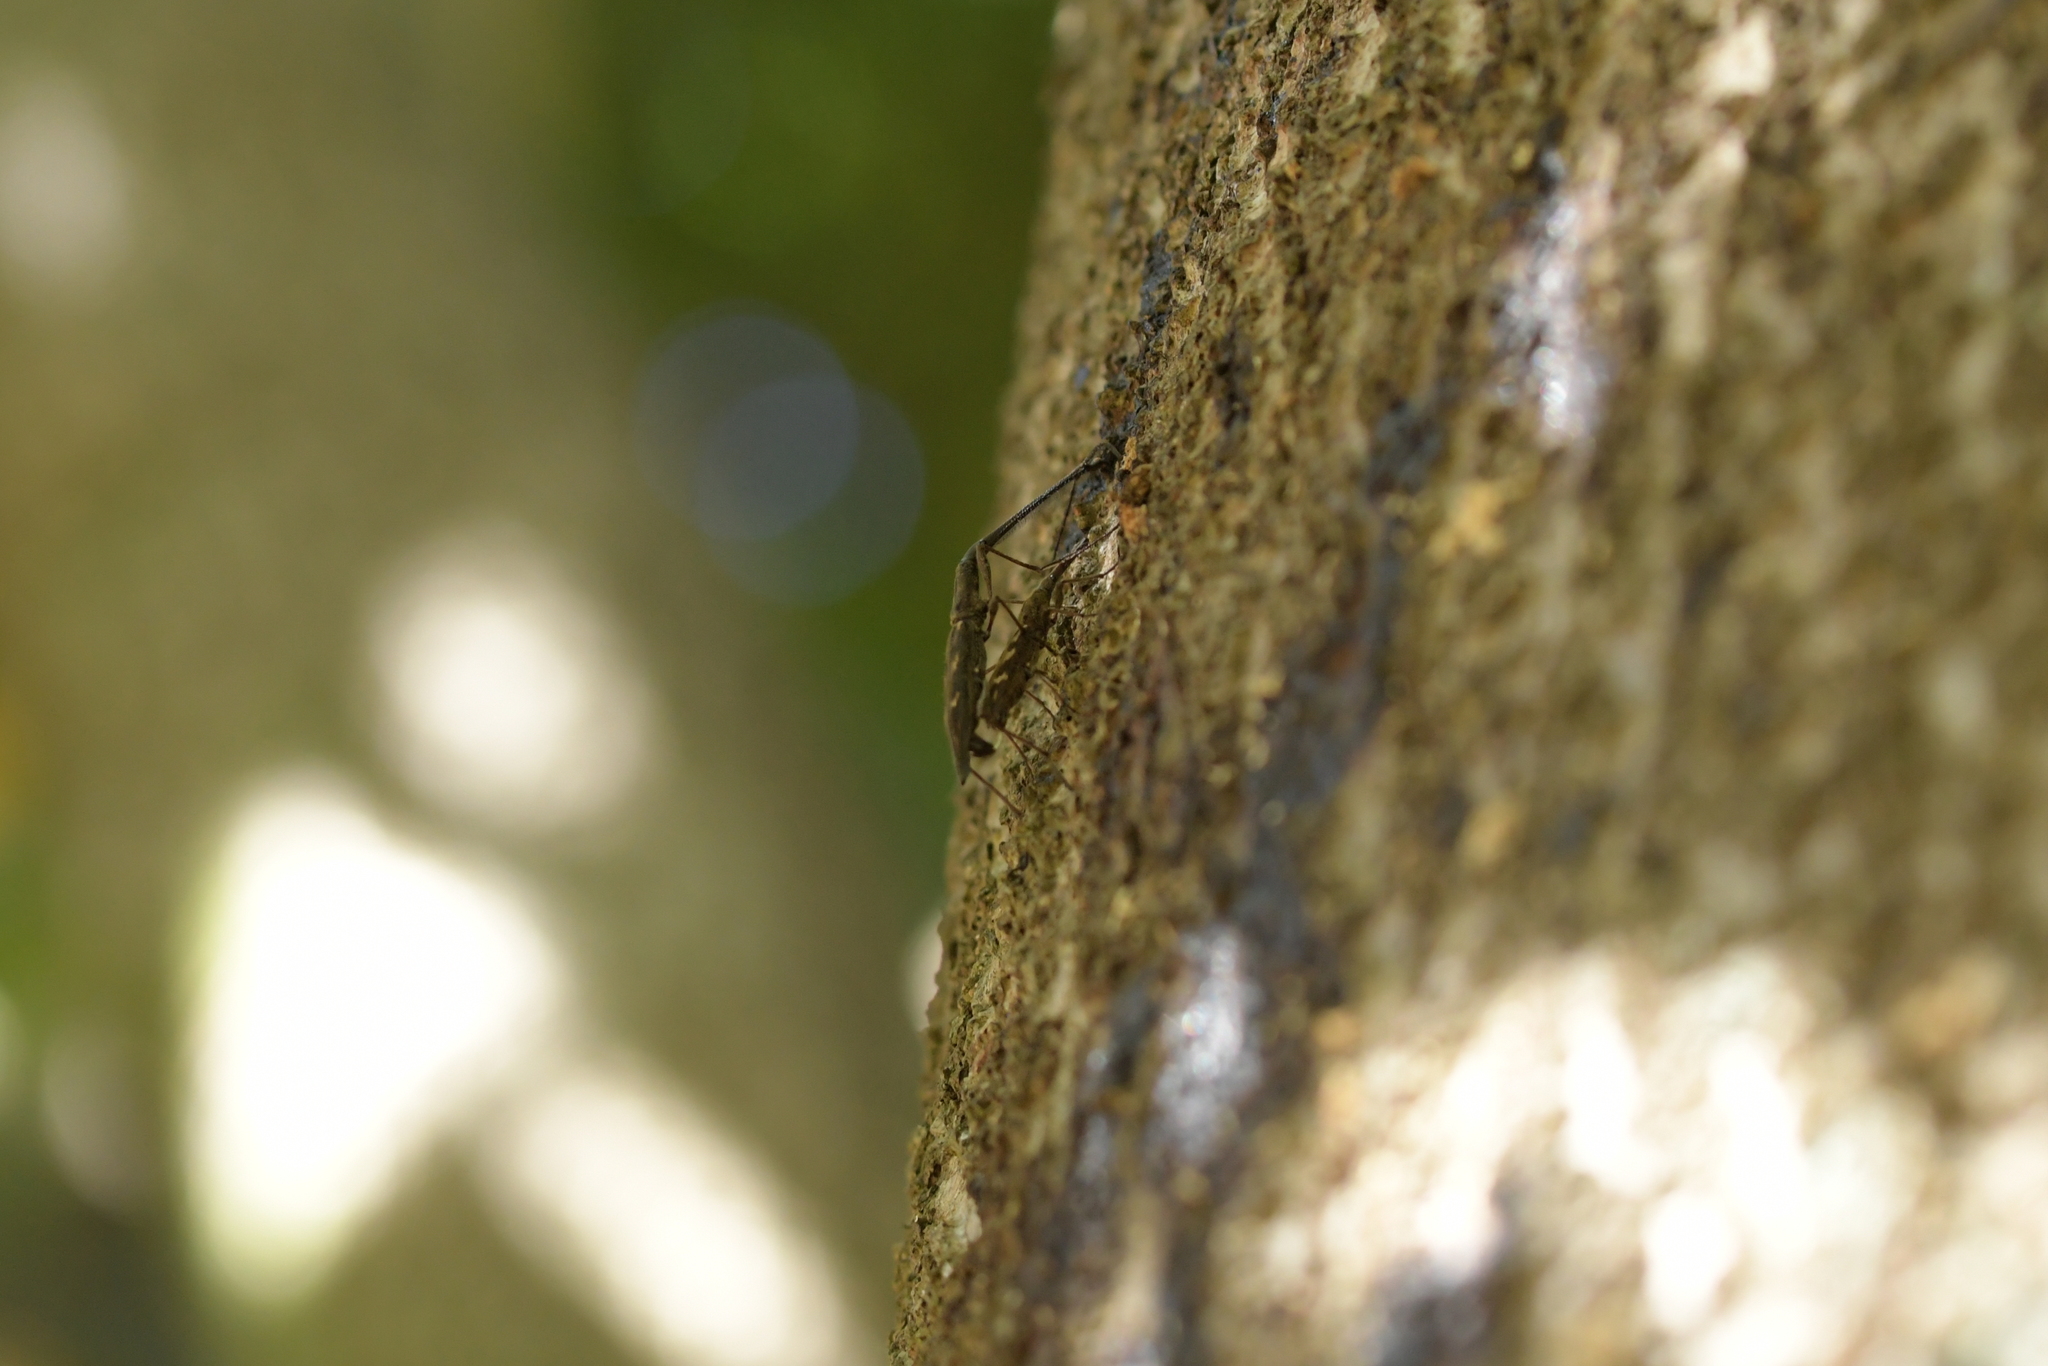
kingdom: Animalia
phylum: Arthropoda
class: Insecta
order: Coleoptera
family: Brentidae
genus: Lasiorhynchus
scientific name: Lasiorhynchus barbicornis
